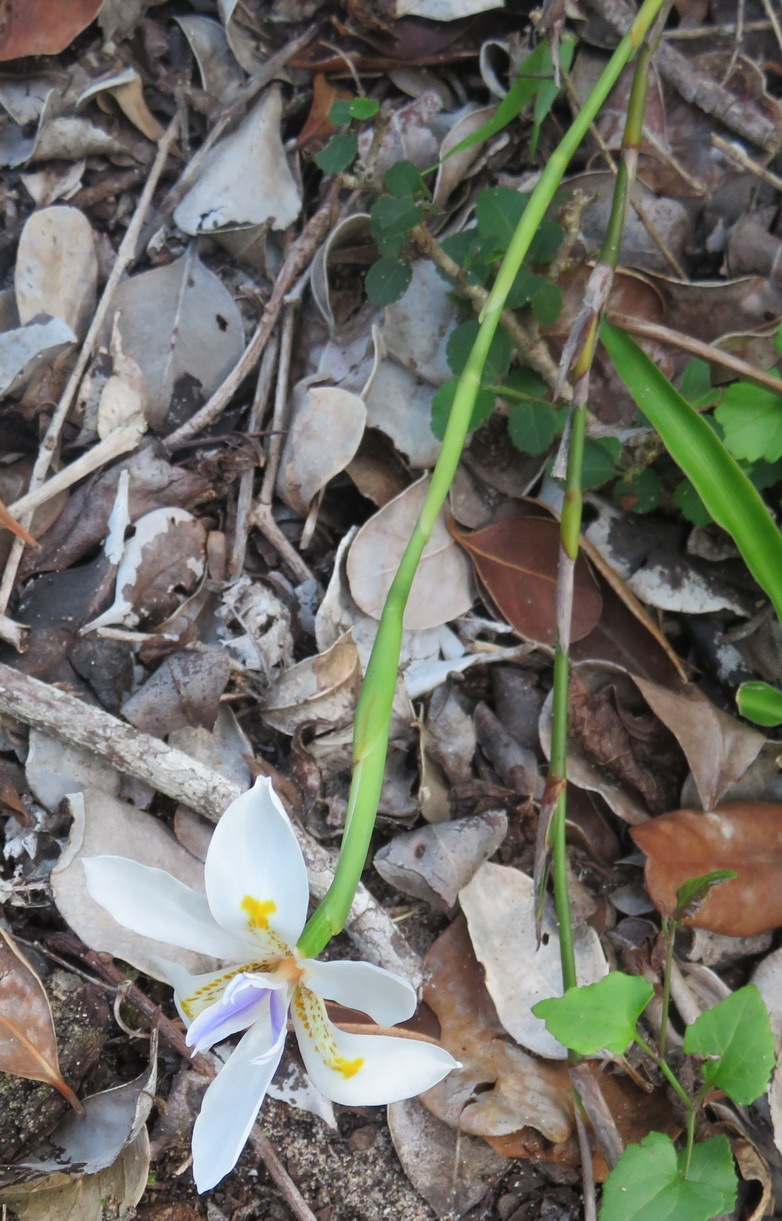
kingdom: Plantae
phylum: Tracheophyta
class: Liliopsida
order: Asparagales
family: Iridaceae
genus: Dietes
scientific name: Dietes iridioides
